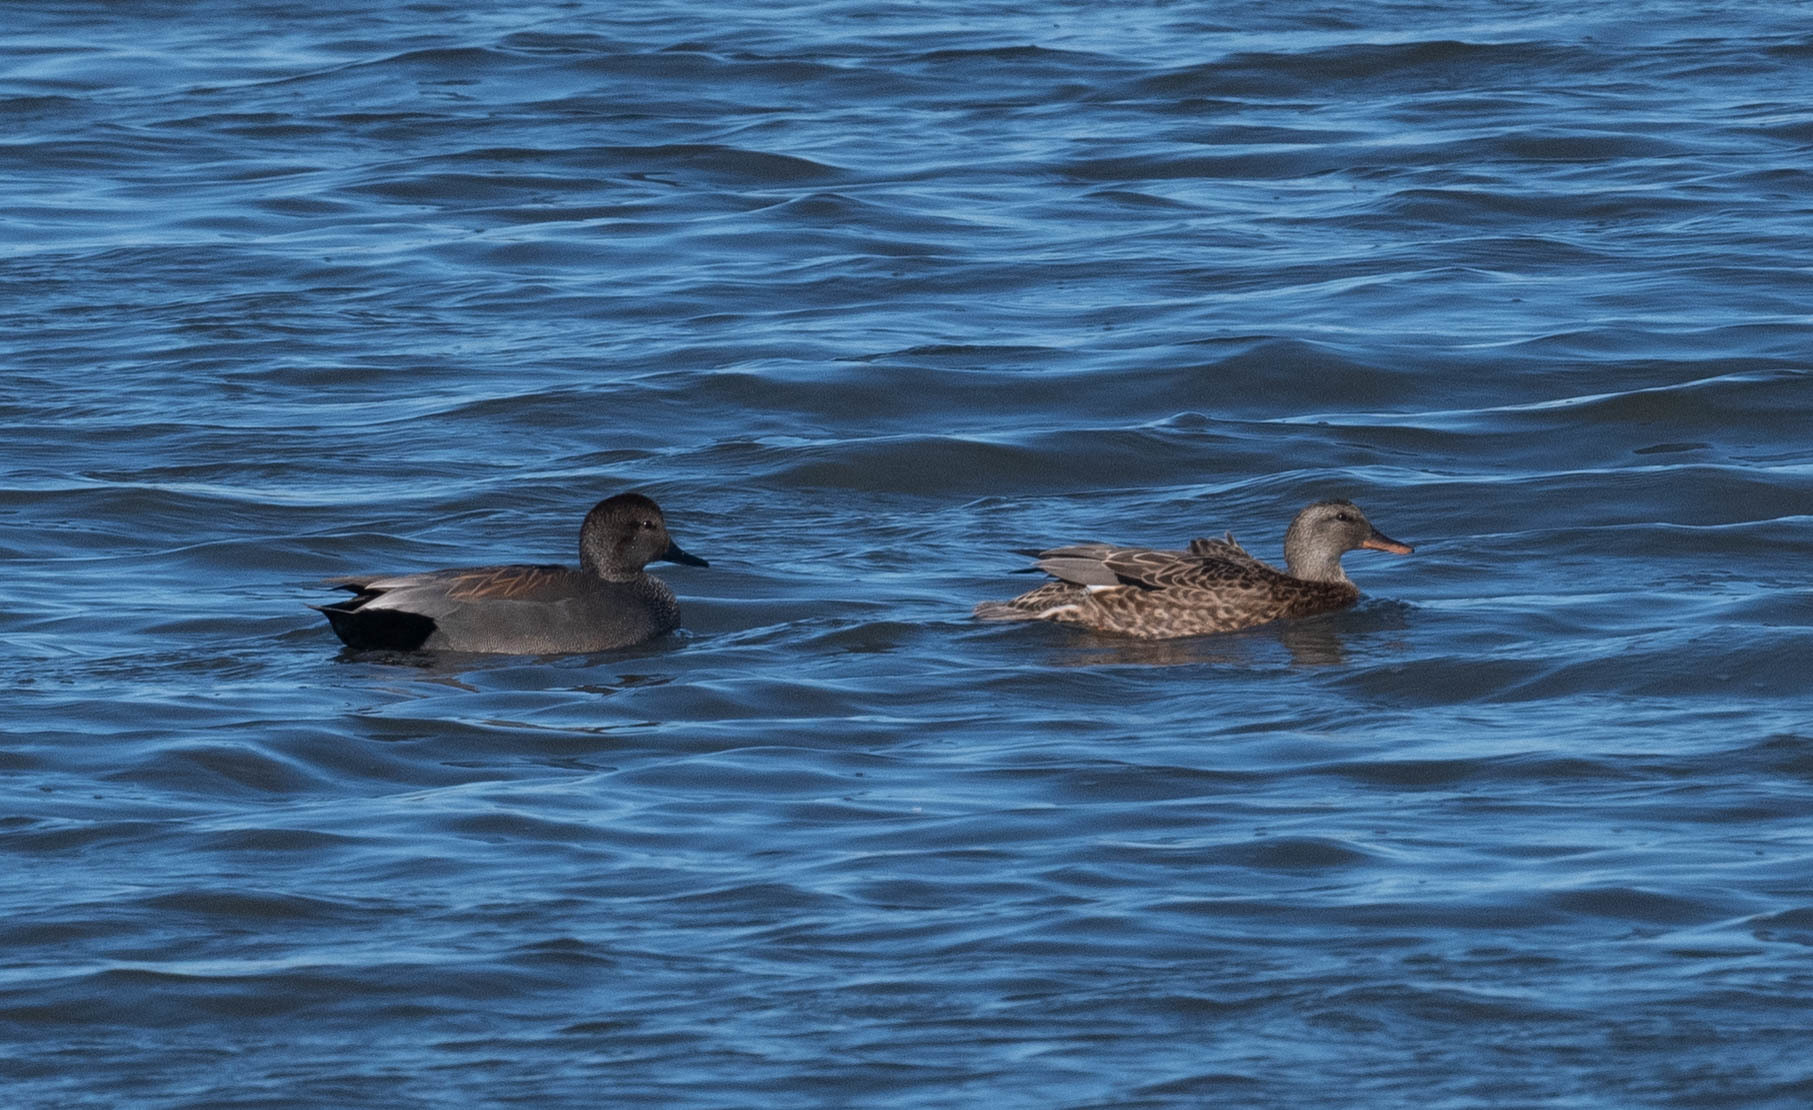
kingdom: Animalia
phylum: Chordata
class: Aves
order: Anseriformes
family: Anatidae
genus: Mareca
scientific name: Mareca strepera
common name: Gadwall
